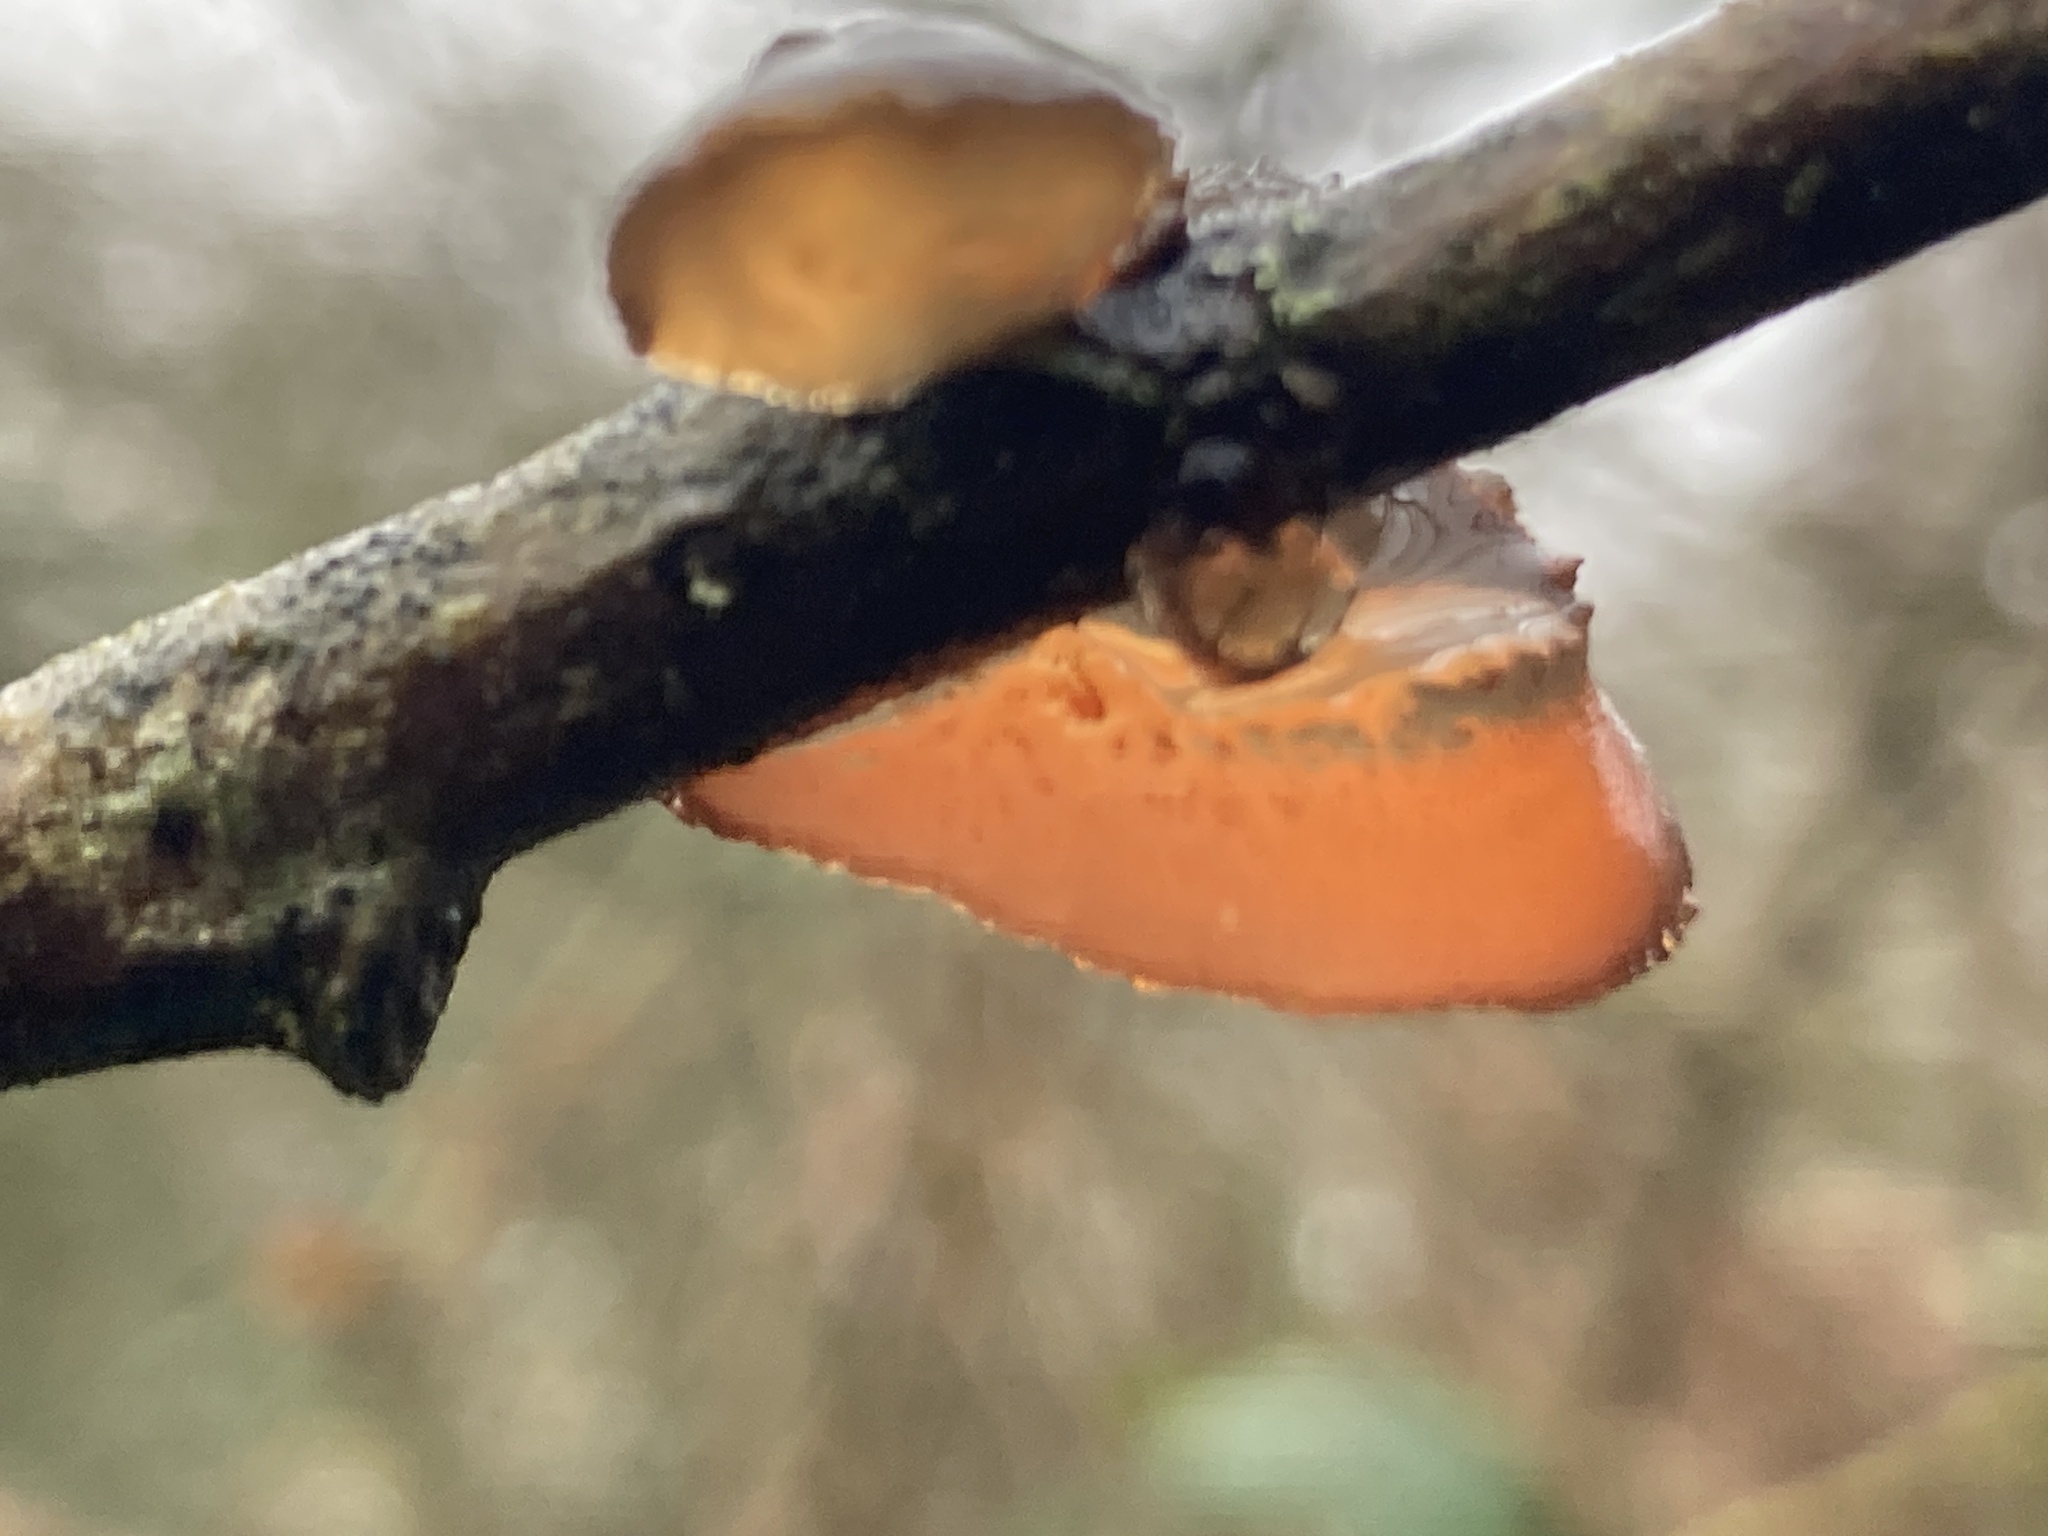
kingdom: Fungi
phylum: Basidiomycota
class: Agaricomycetes
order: Auriculariales
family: Auriculariaceae
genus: Exidia
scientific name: Exidia recisa
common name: Amber jelly
